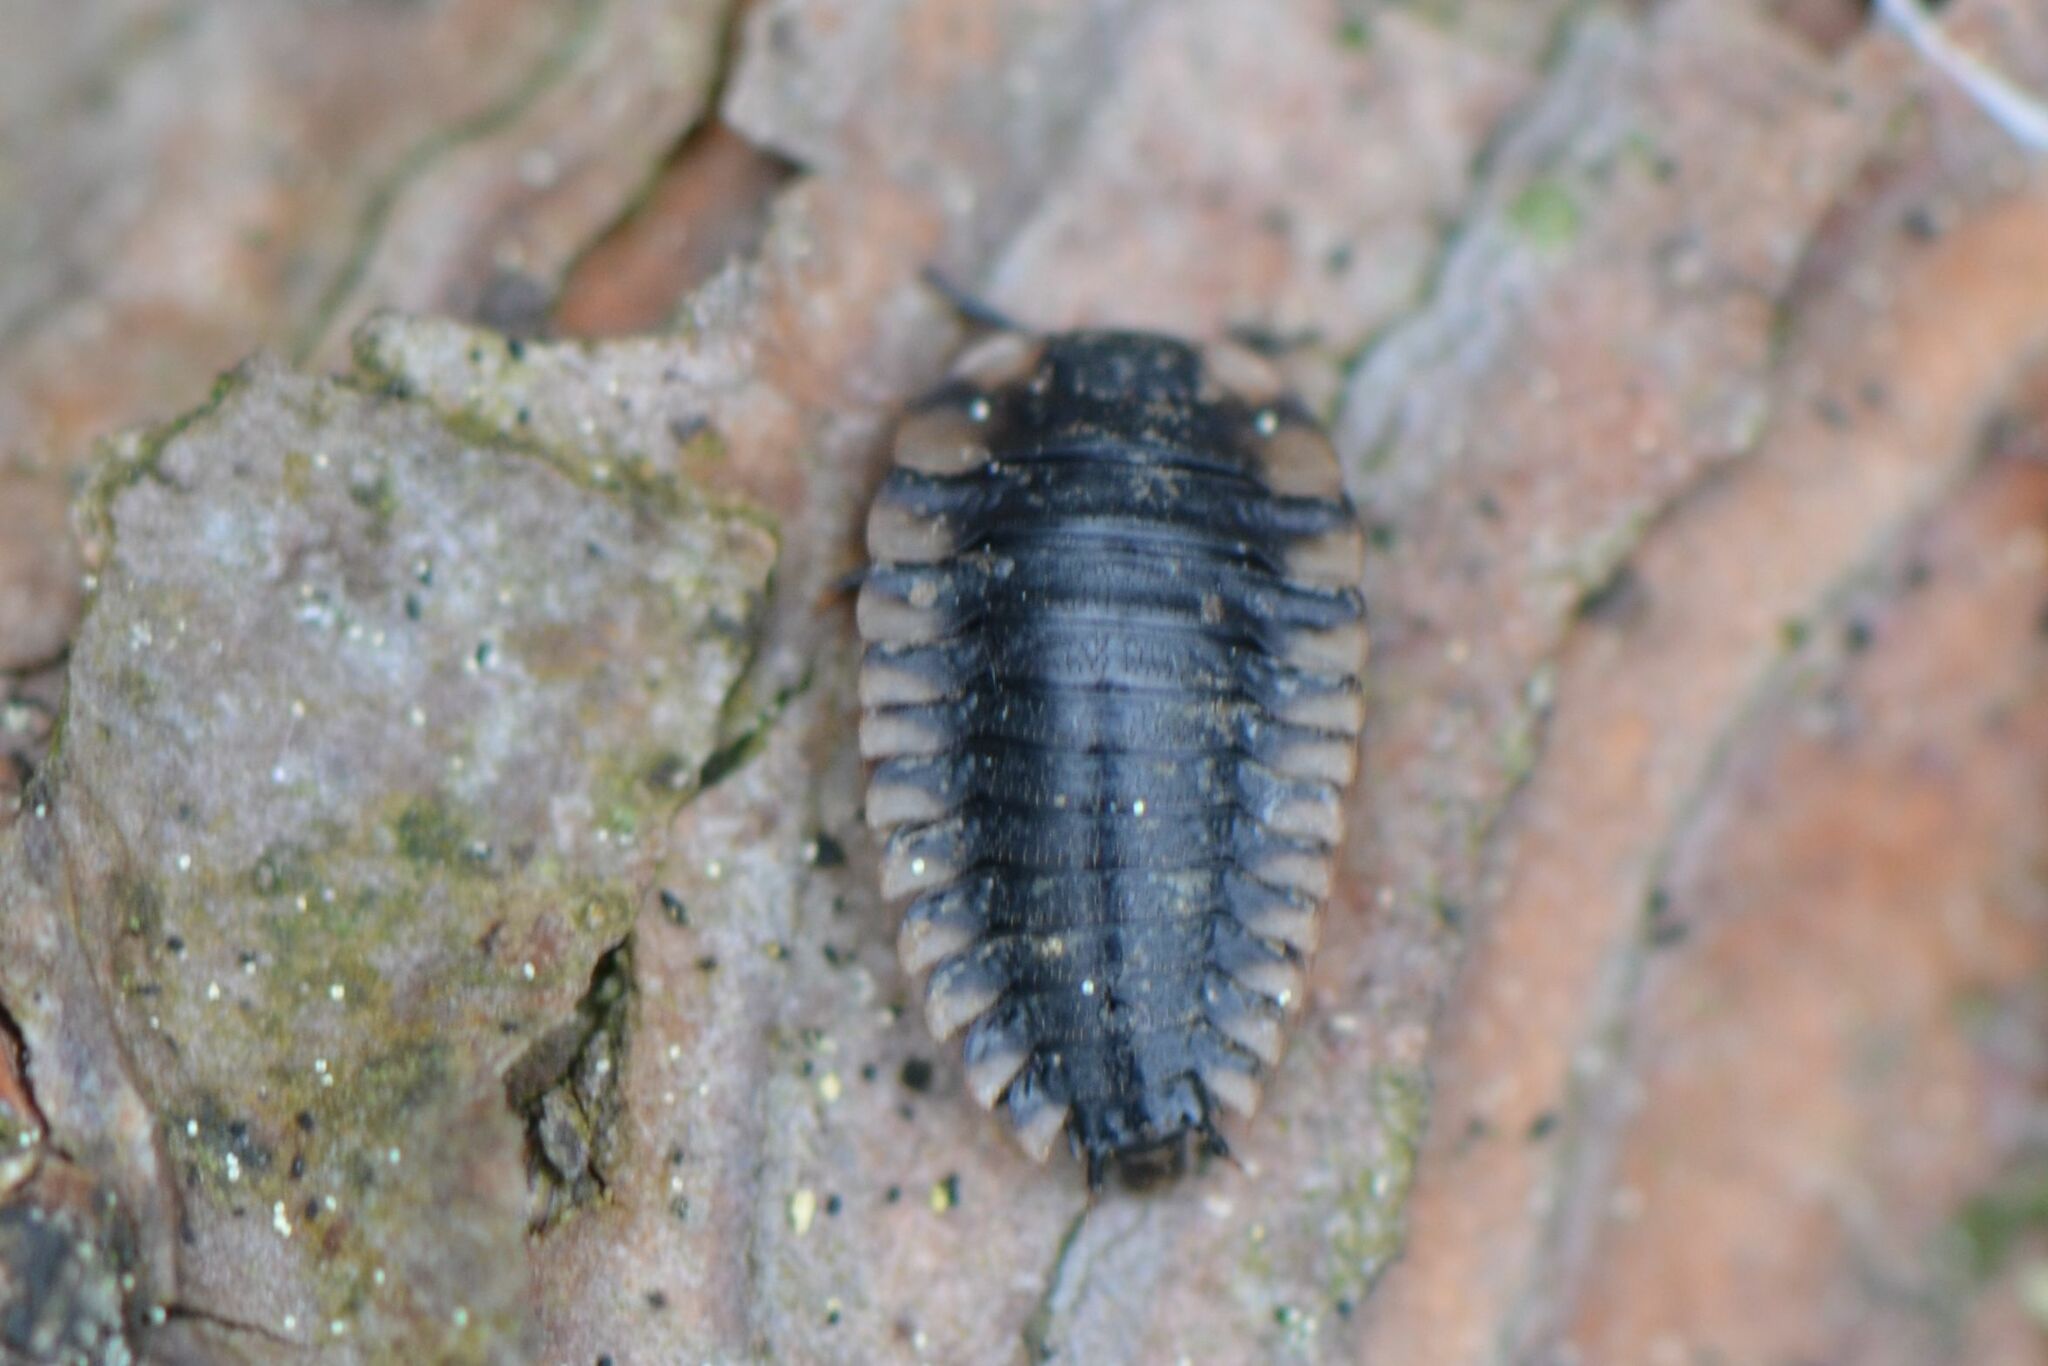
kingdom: Animalia
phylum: Arthropoda
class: Insecta
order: Coleoptera
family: Staphylinidae
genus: Oiceoptoma
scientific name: Oiceoptoma thoracicum
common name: Red-breasted carrion beetle
